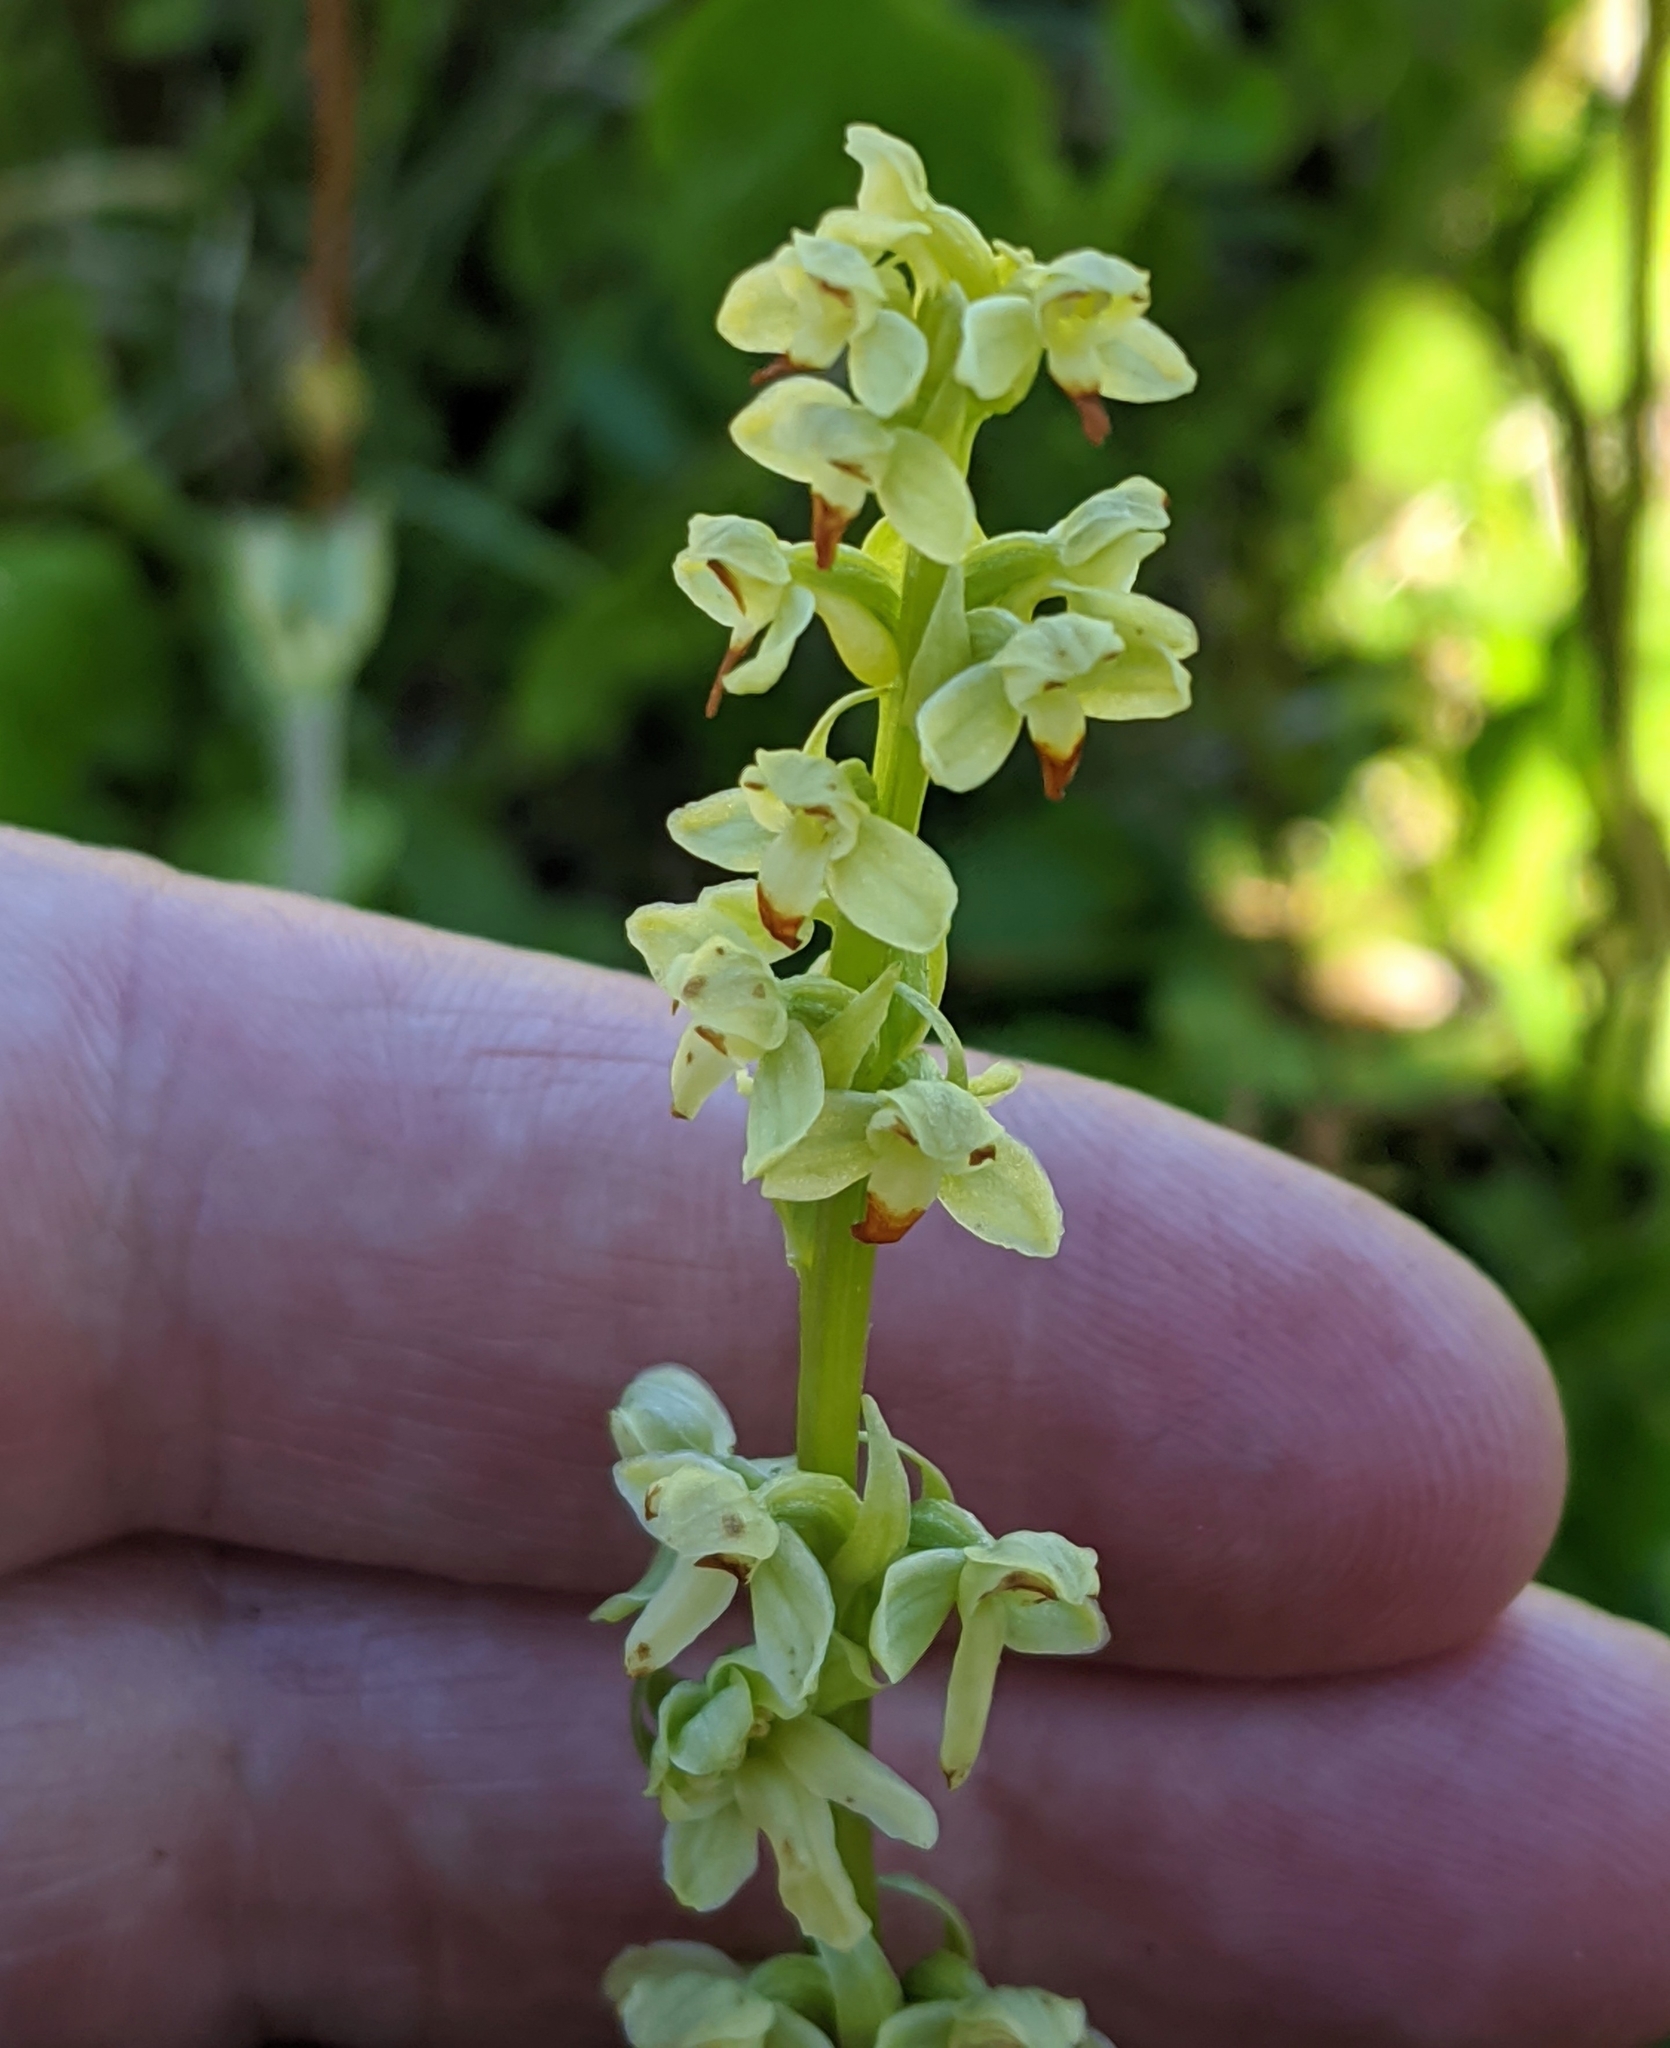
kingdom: Plantae
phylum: Tracheophyta
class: Liliopsida
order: Asparagales
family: Orchidaceae
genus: Platanthera
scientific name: Platanthera stricta
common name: Slender bog orchid
